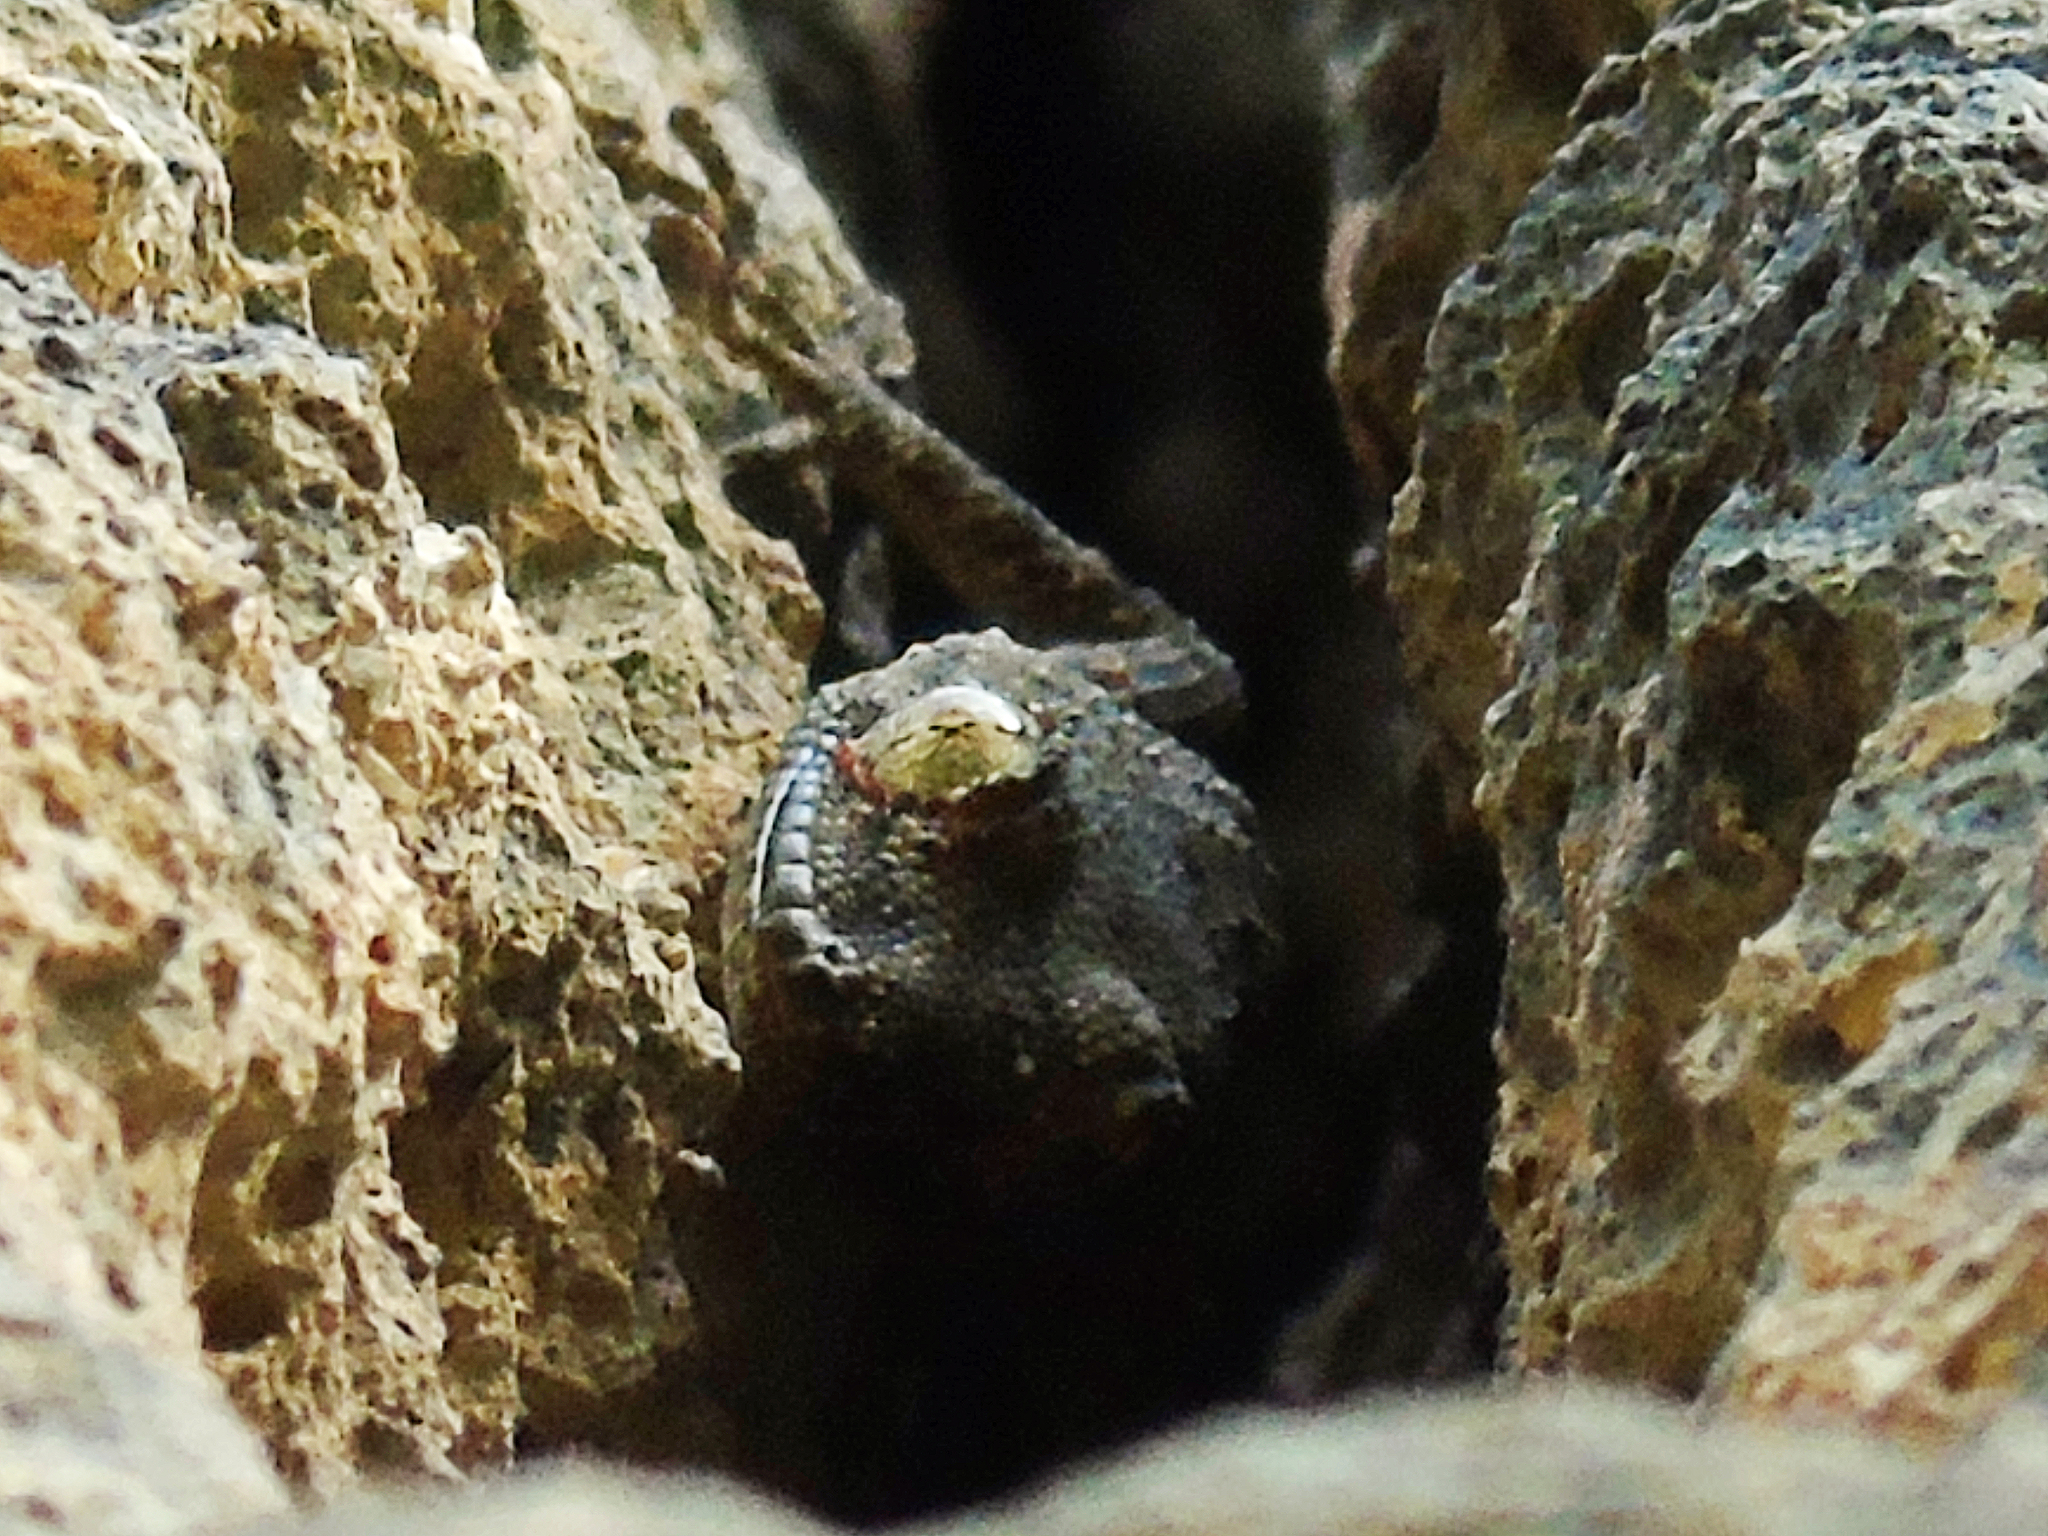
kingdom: Animalia
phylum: Chordata
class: Squamata
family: Gekkonidae
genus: Mediodactylus
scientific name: Mediodactylus heterocercus
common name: Asia minor thin-toed gecko
